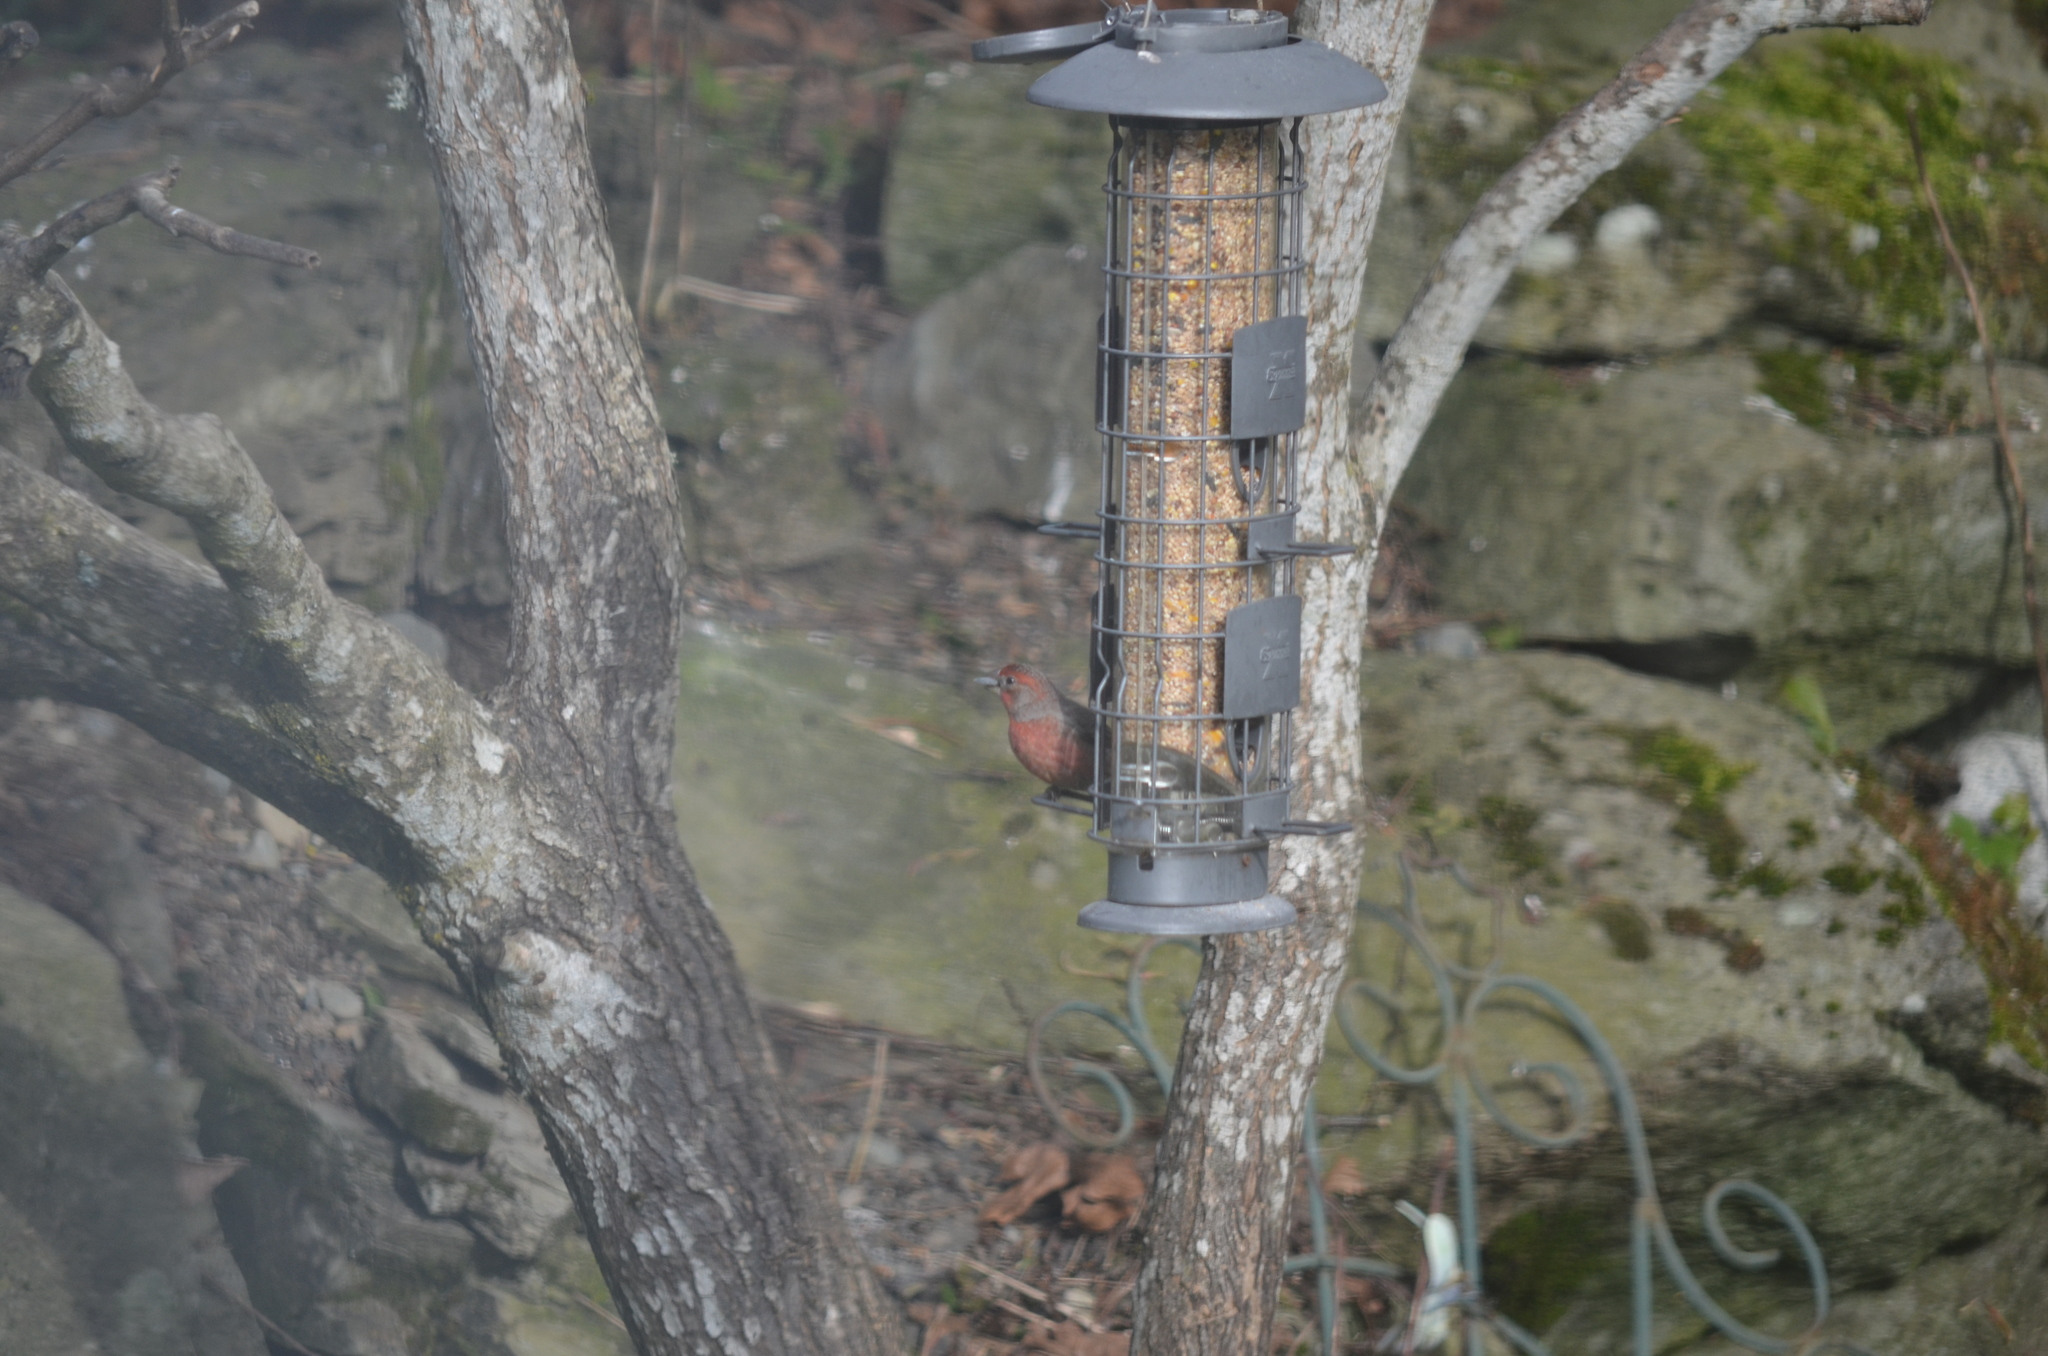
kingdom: Animalia
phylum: Chordata
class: Aves
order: Passeriformes
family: Fringillidae
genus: Haemorhous
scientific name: Haemorhous mexicanus
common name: House finch
